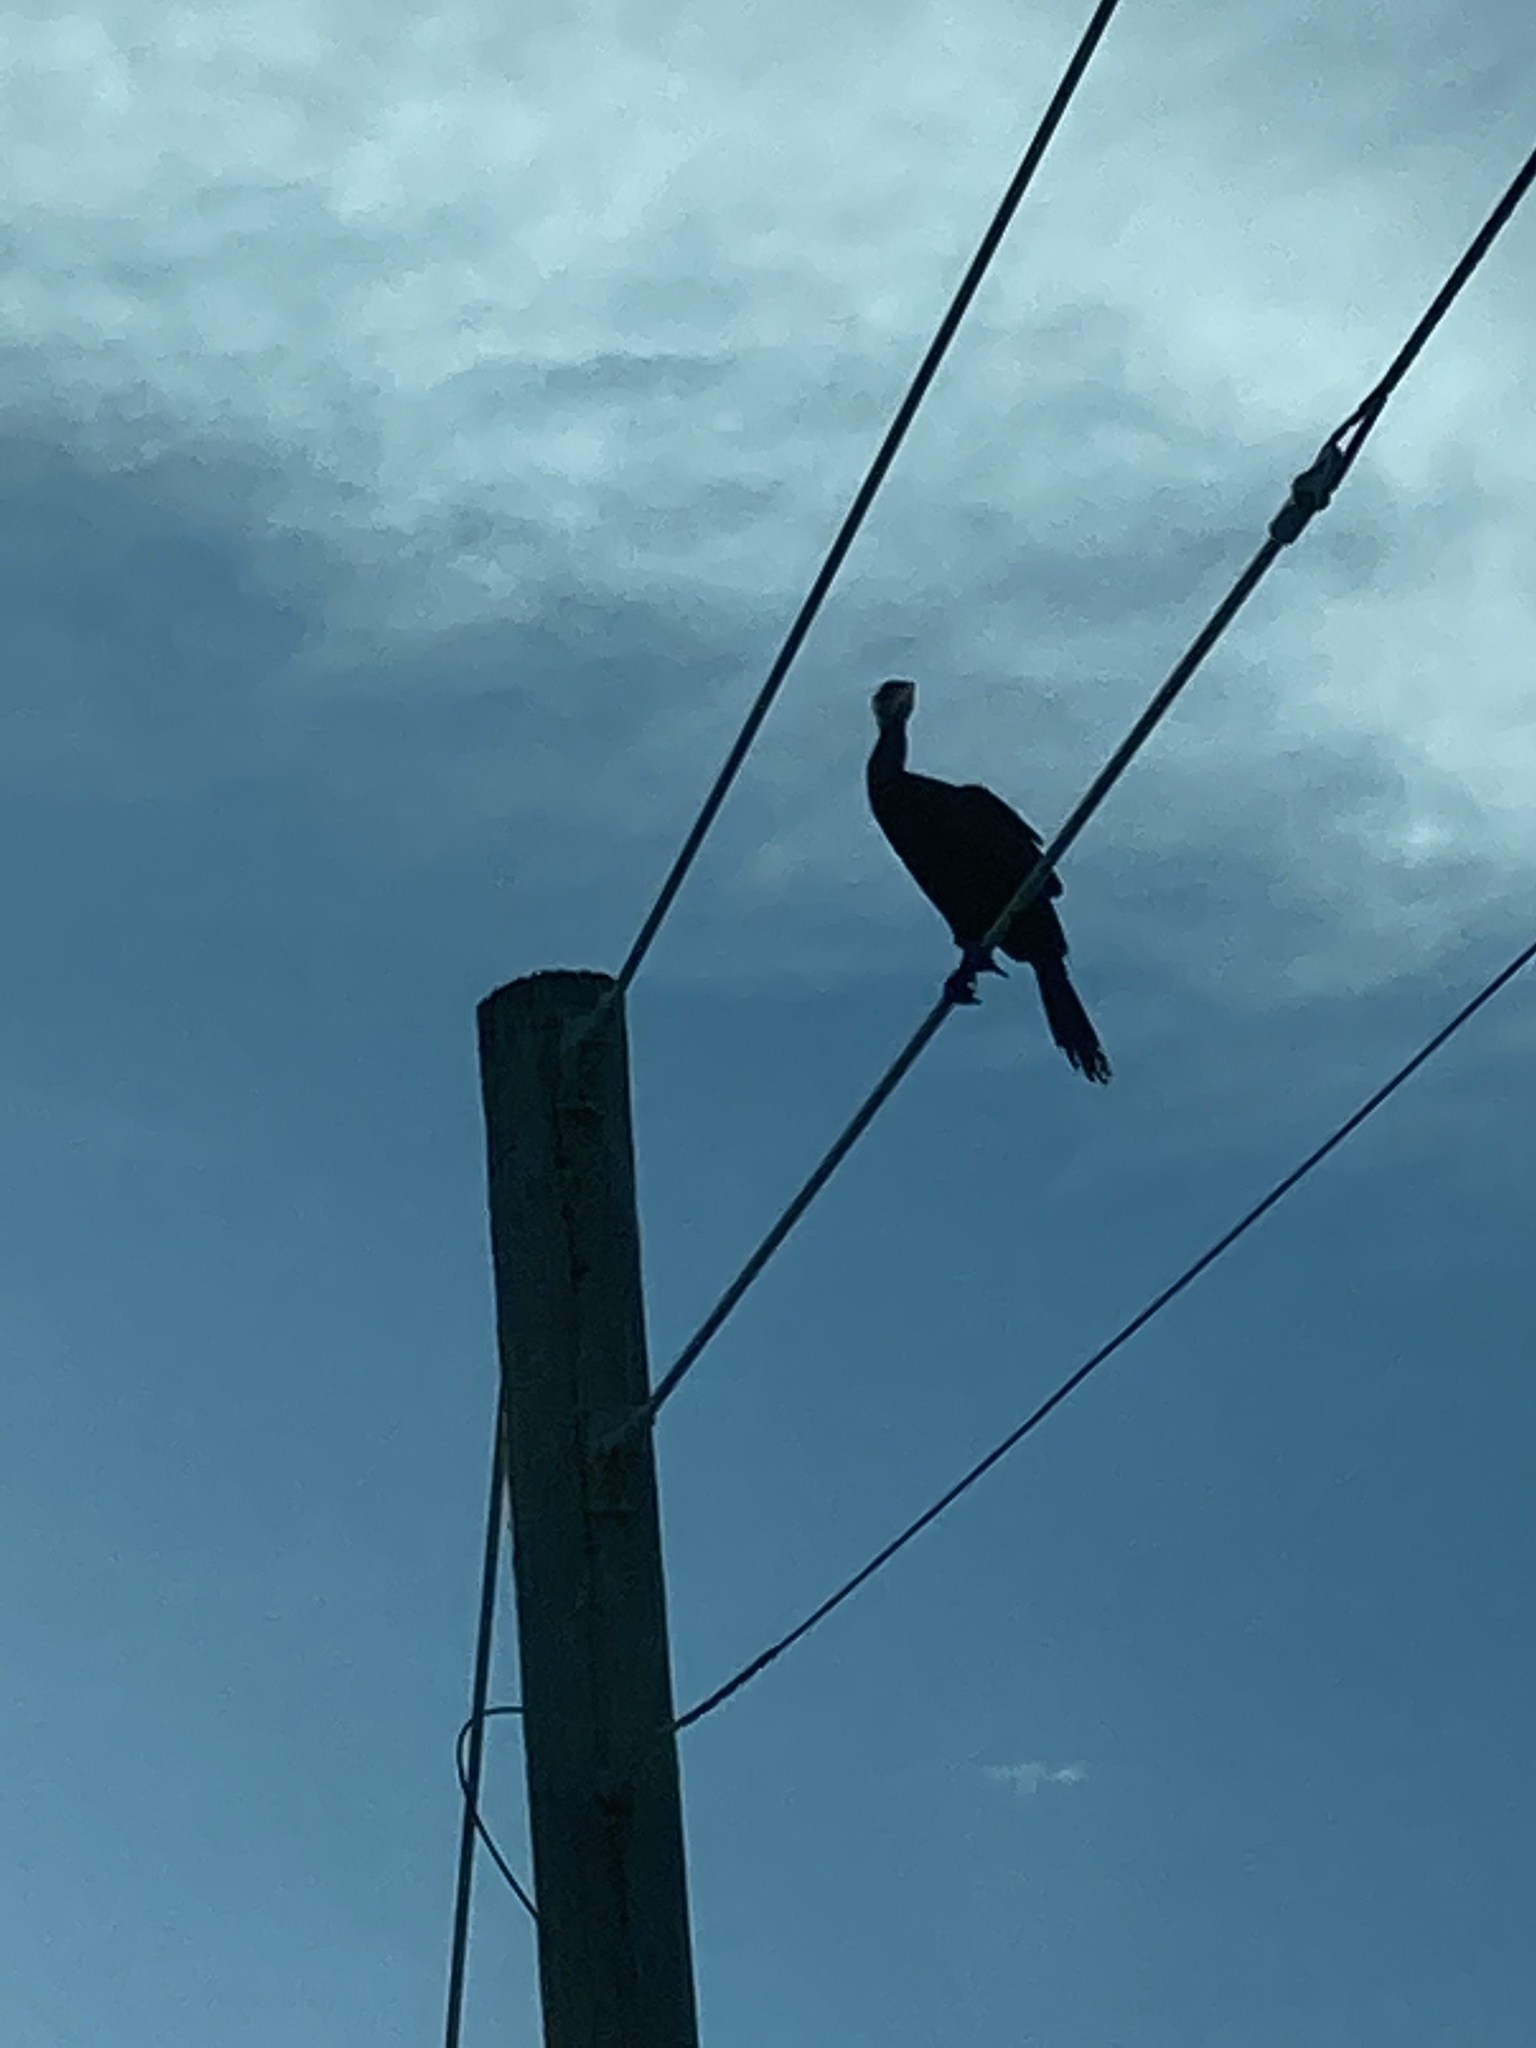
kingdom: Animalia
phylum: Chordata
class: Aves
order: Suliformes
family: Phalacrocoracidae
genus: Phalacrocorax
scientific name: Phalacrocorax brasilianus
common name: Neotropic cormorant
